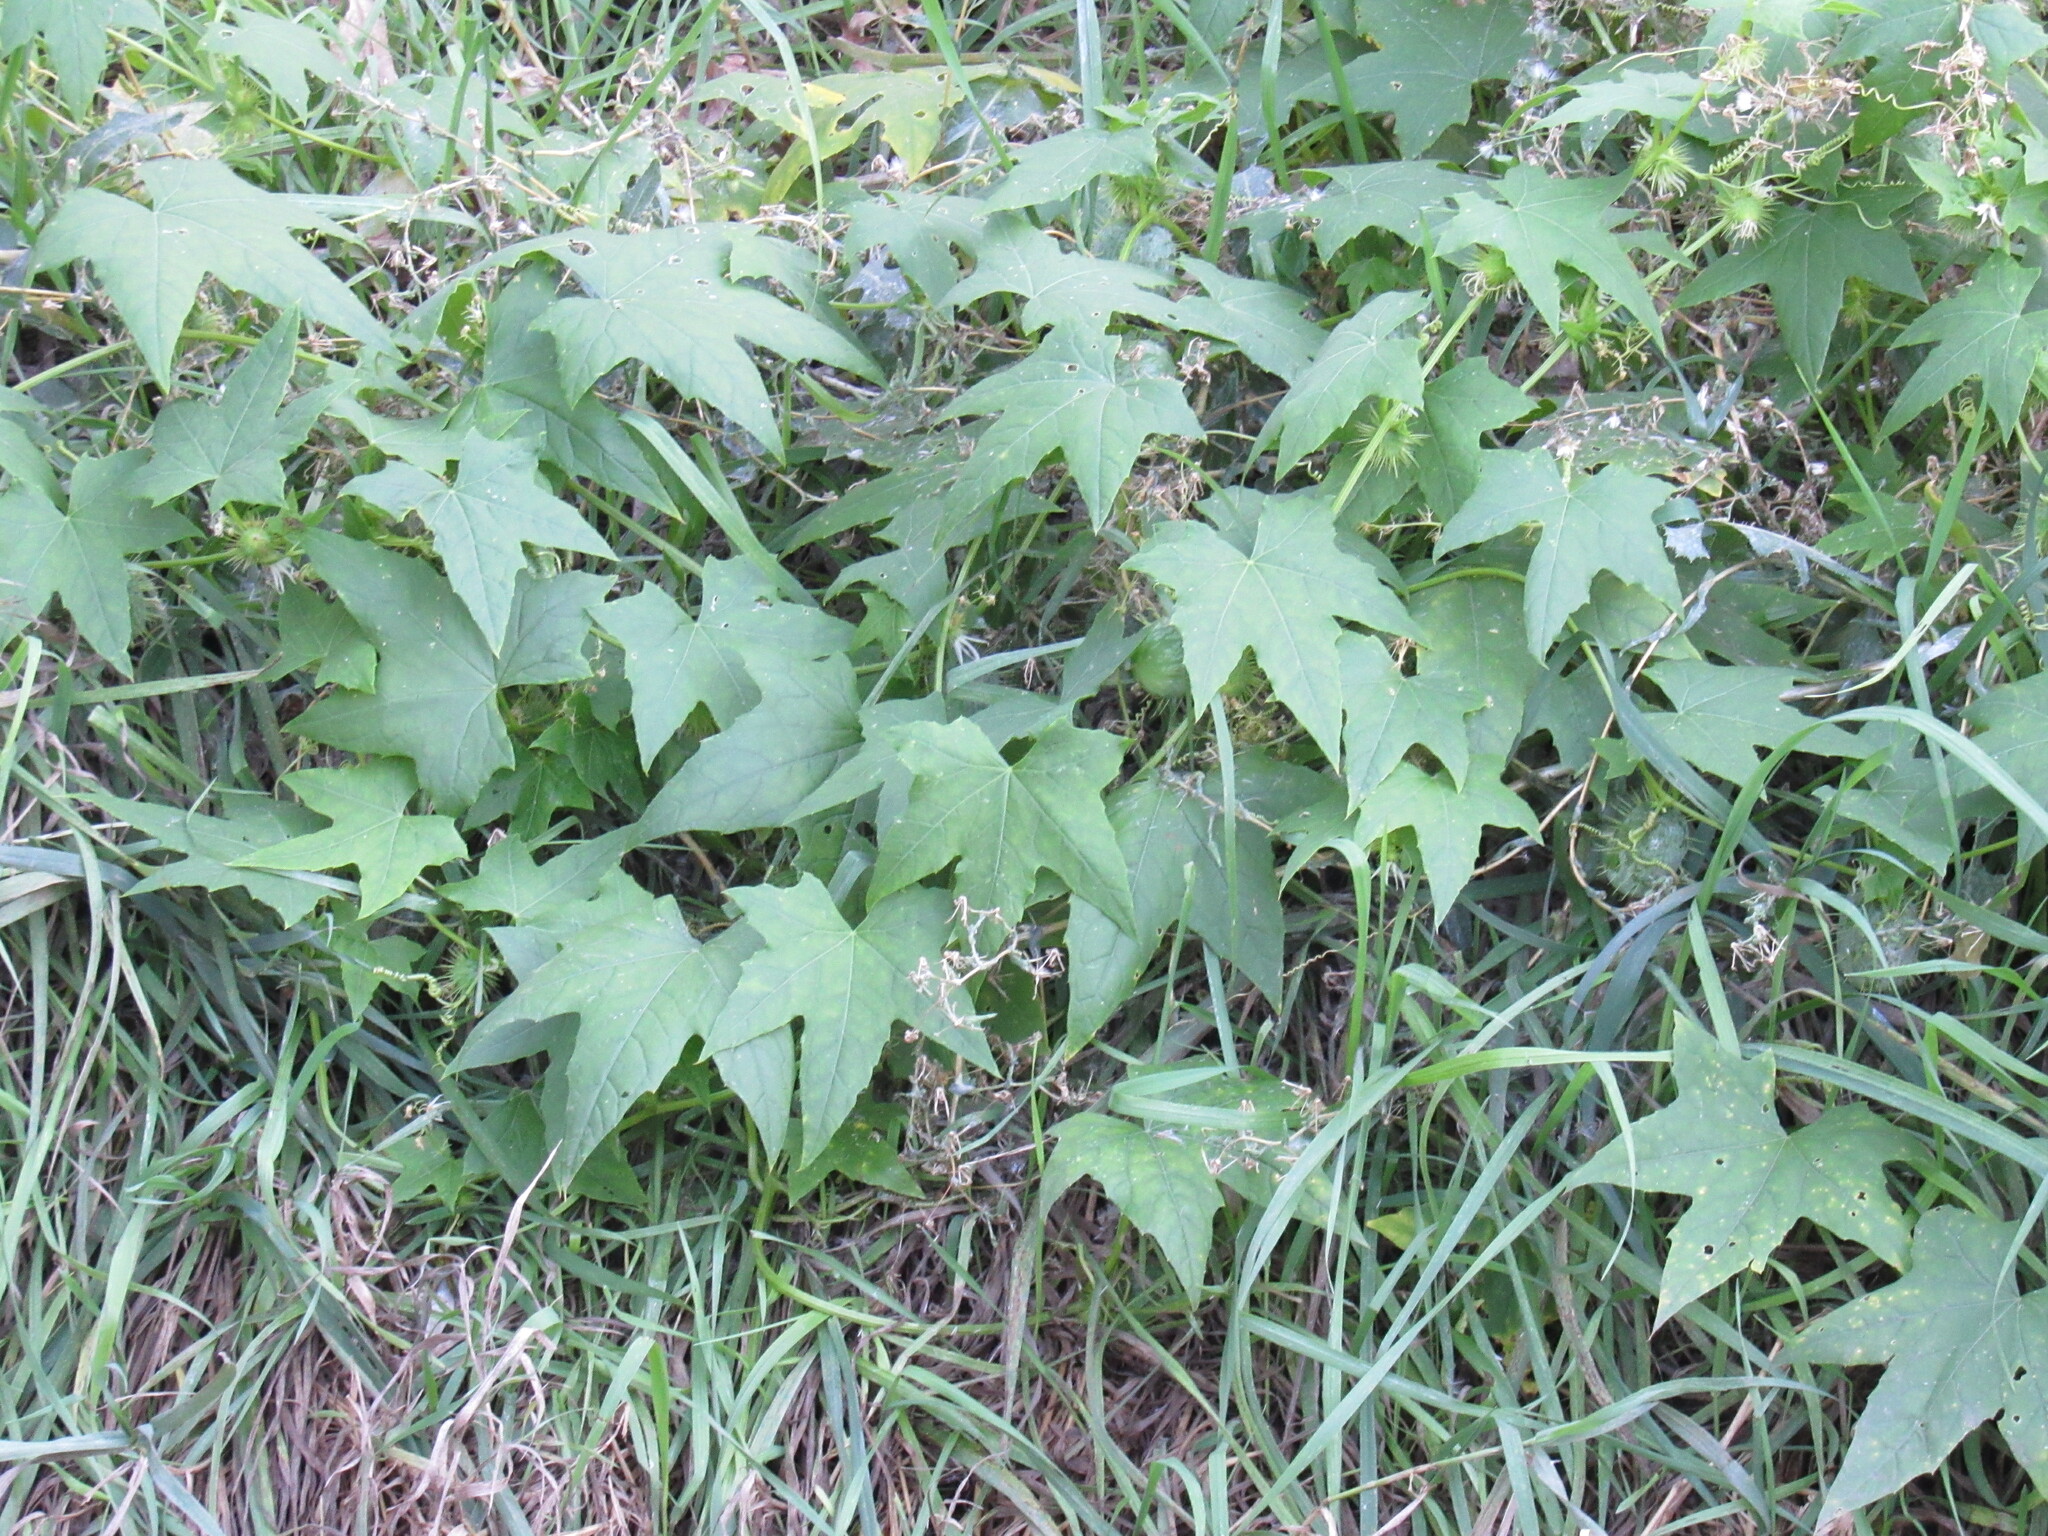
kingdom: Plantae
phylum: Tracheophyta
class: Magnoliopsida
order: Cucurbitales
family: Cucurbitaceae
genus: Echinocystis
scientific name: Echinocystis lobata
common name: Wild cucumber
